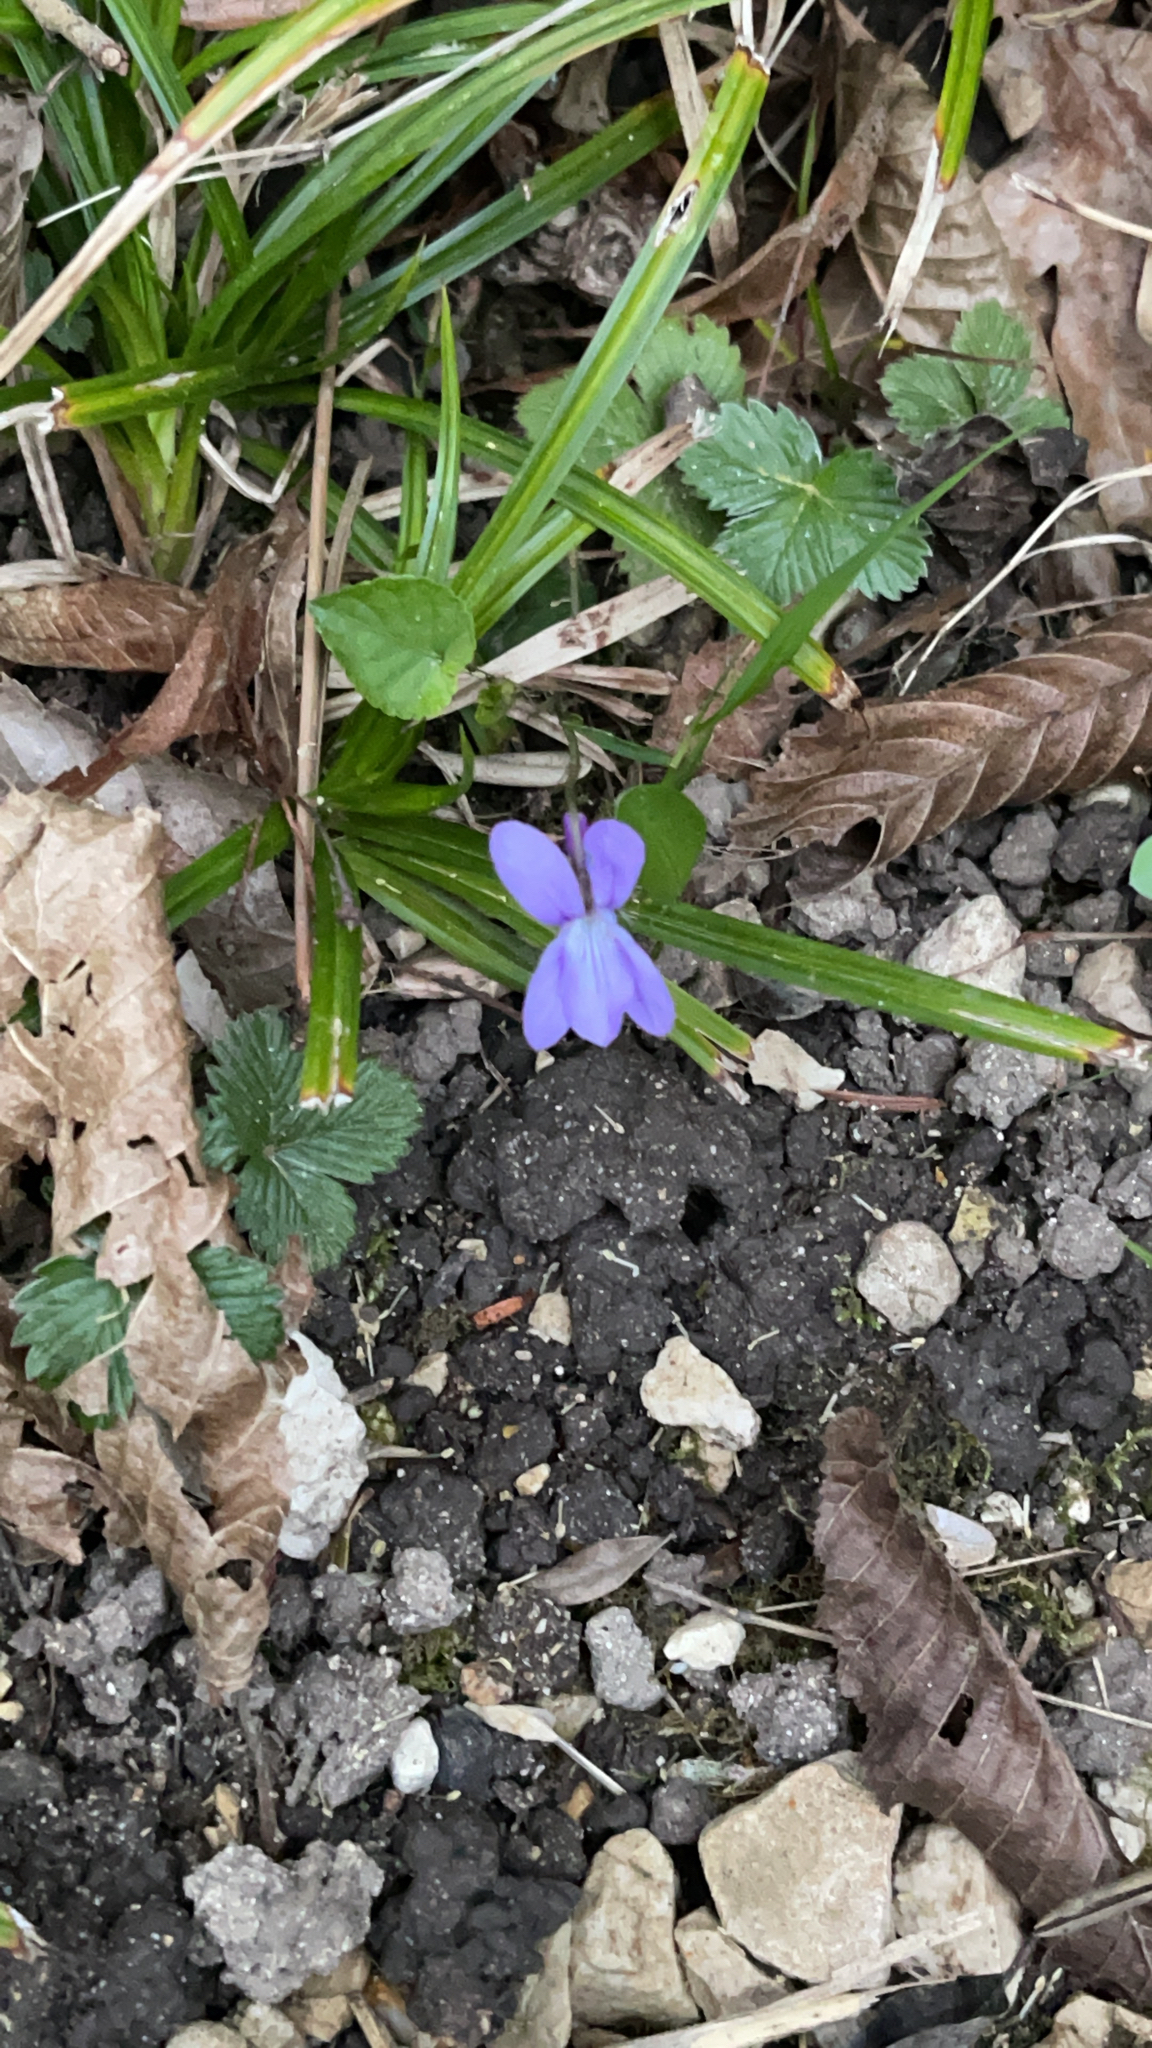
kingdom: Plantae
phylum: Tracheophyta
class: Magnoliopsida
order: Malpighiales
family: Violaceae
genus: Viola
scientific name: Viola reichenbachiana
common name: Early dog-violet
